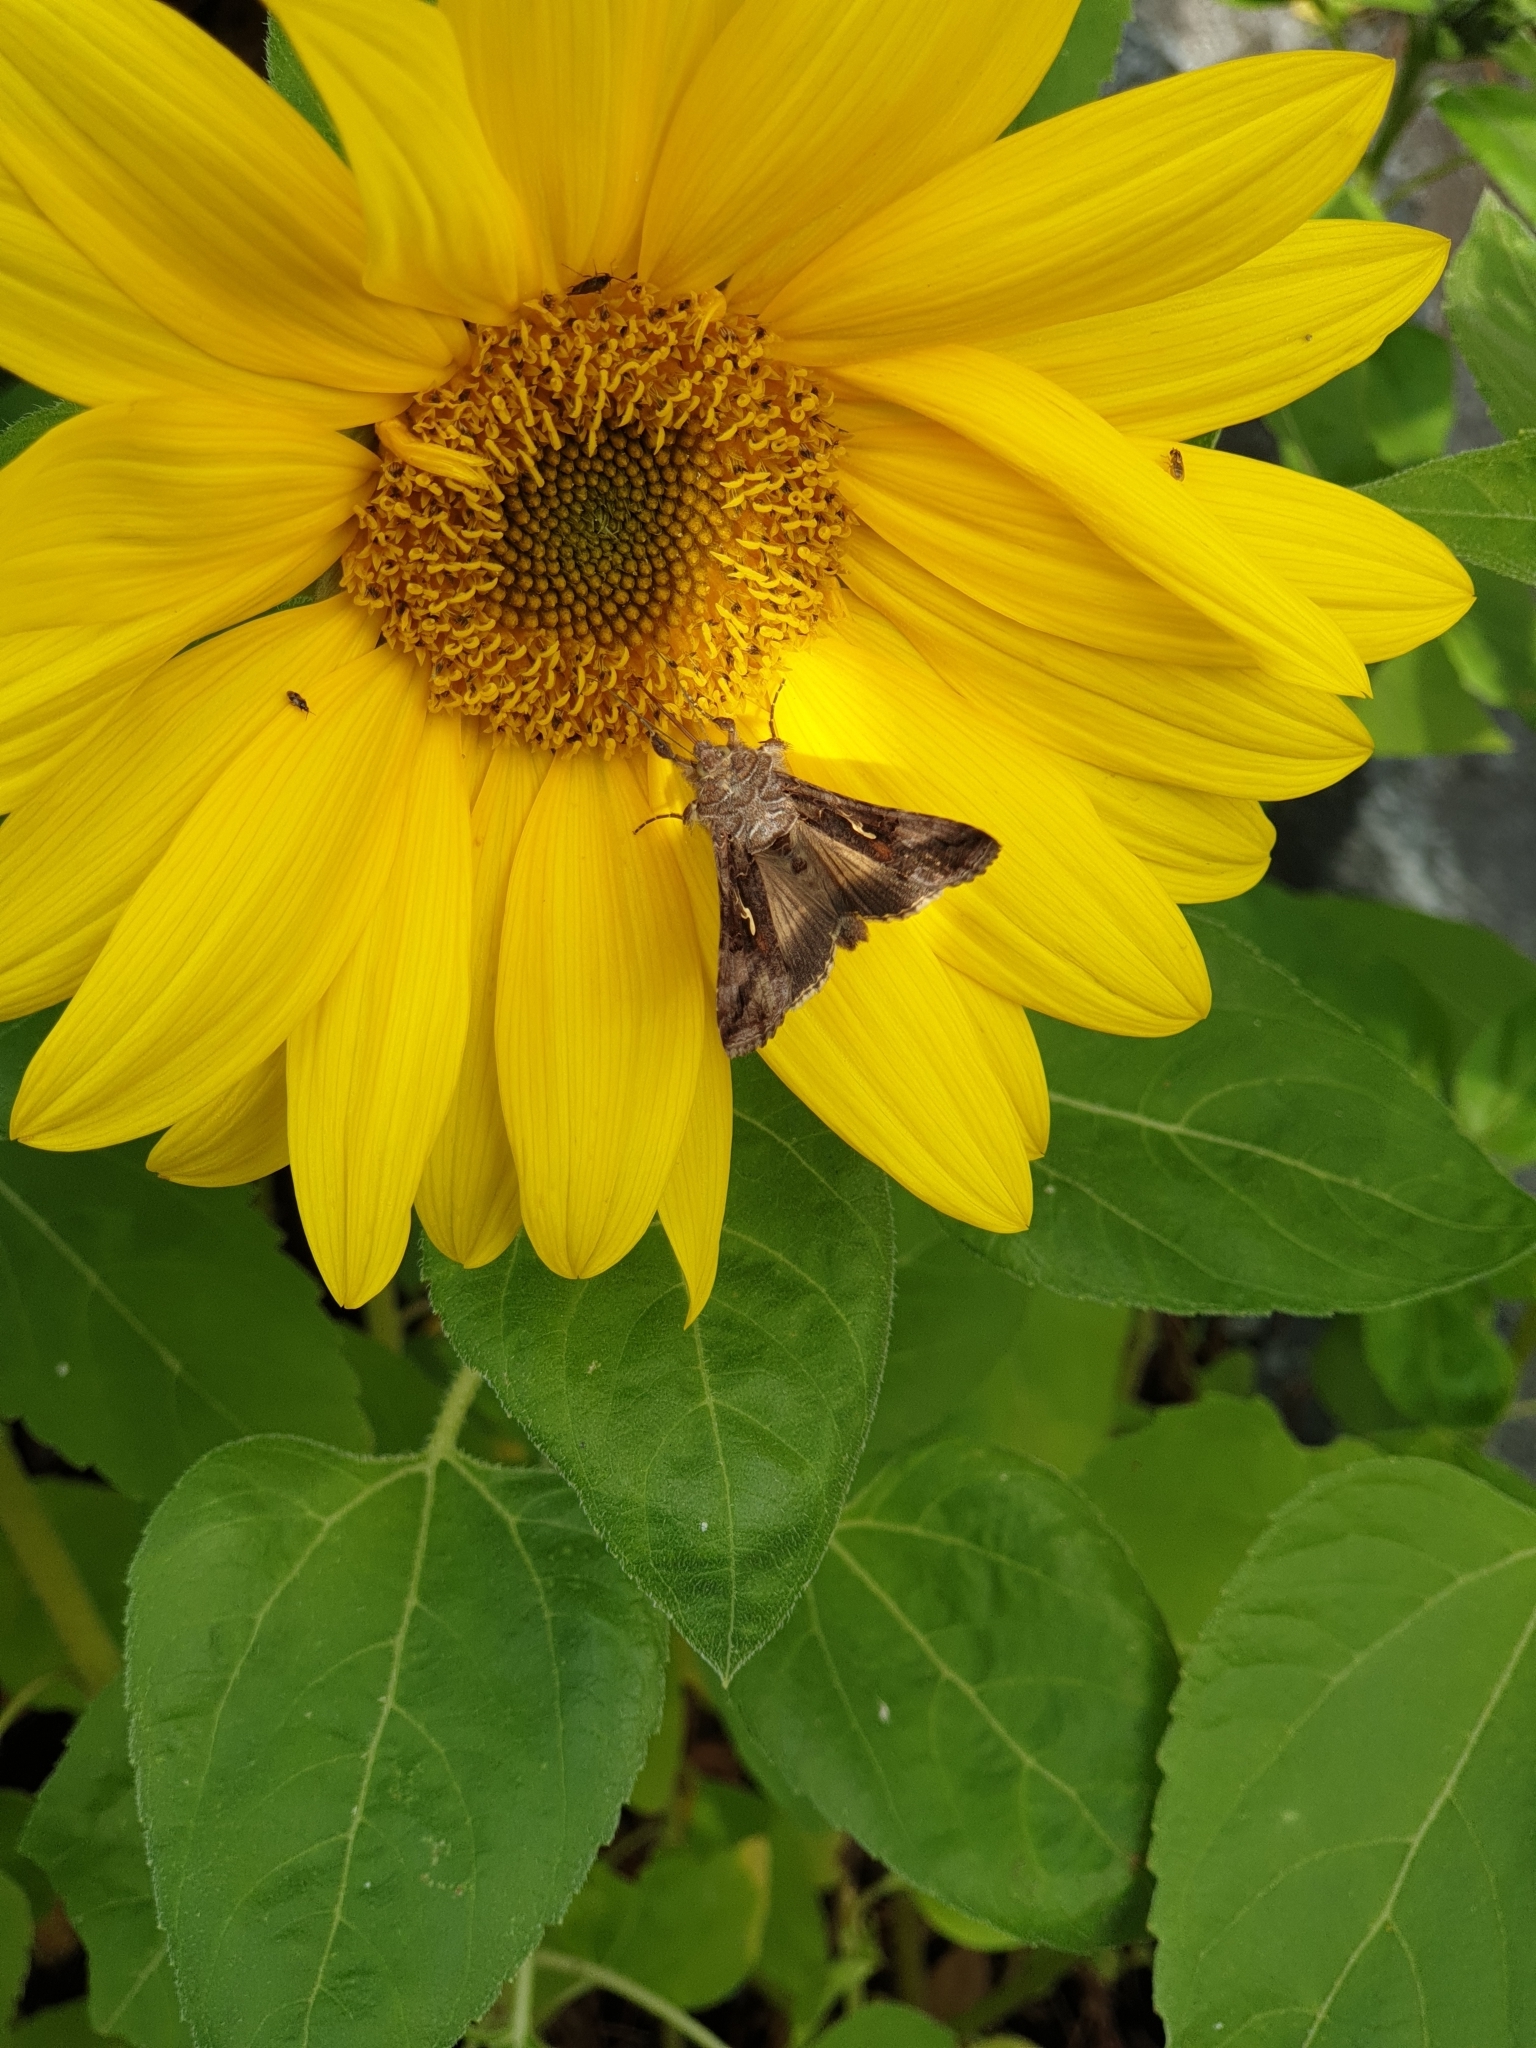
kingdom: Animalia
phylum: Arthropoda
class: Insecta
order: Lepidoptera
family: Noctuidae
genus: Autographa
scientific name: Autographa gamma
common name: Silver y
